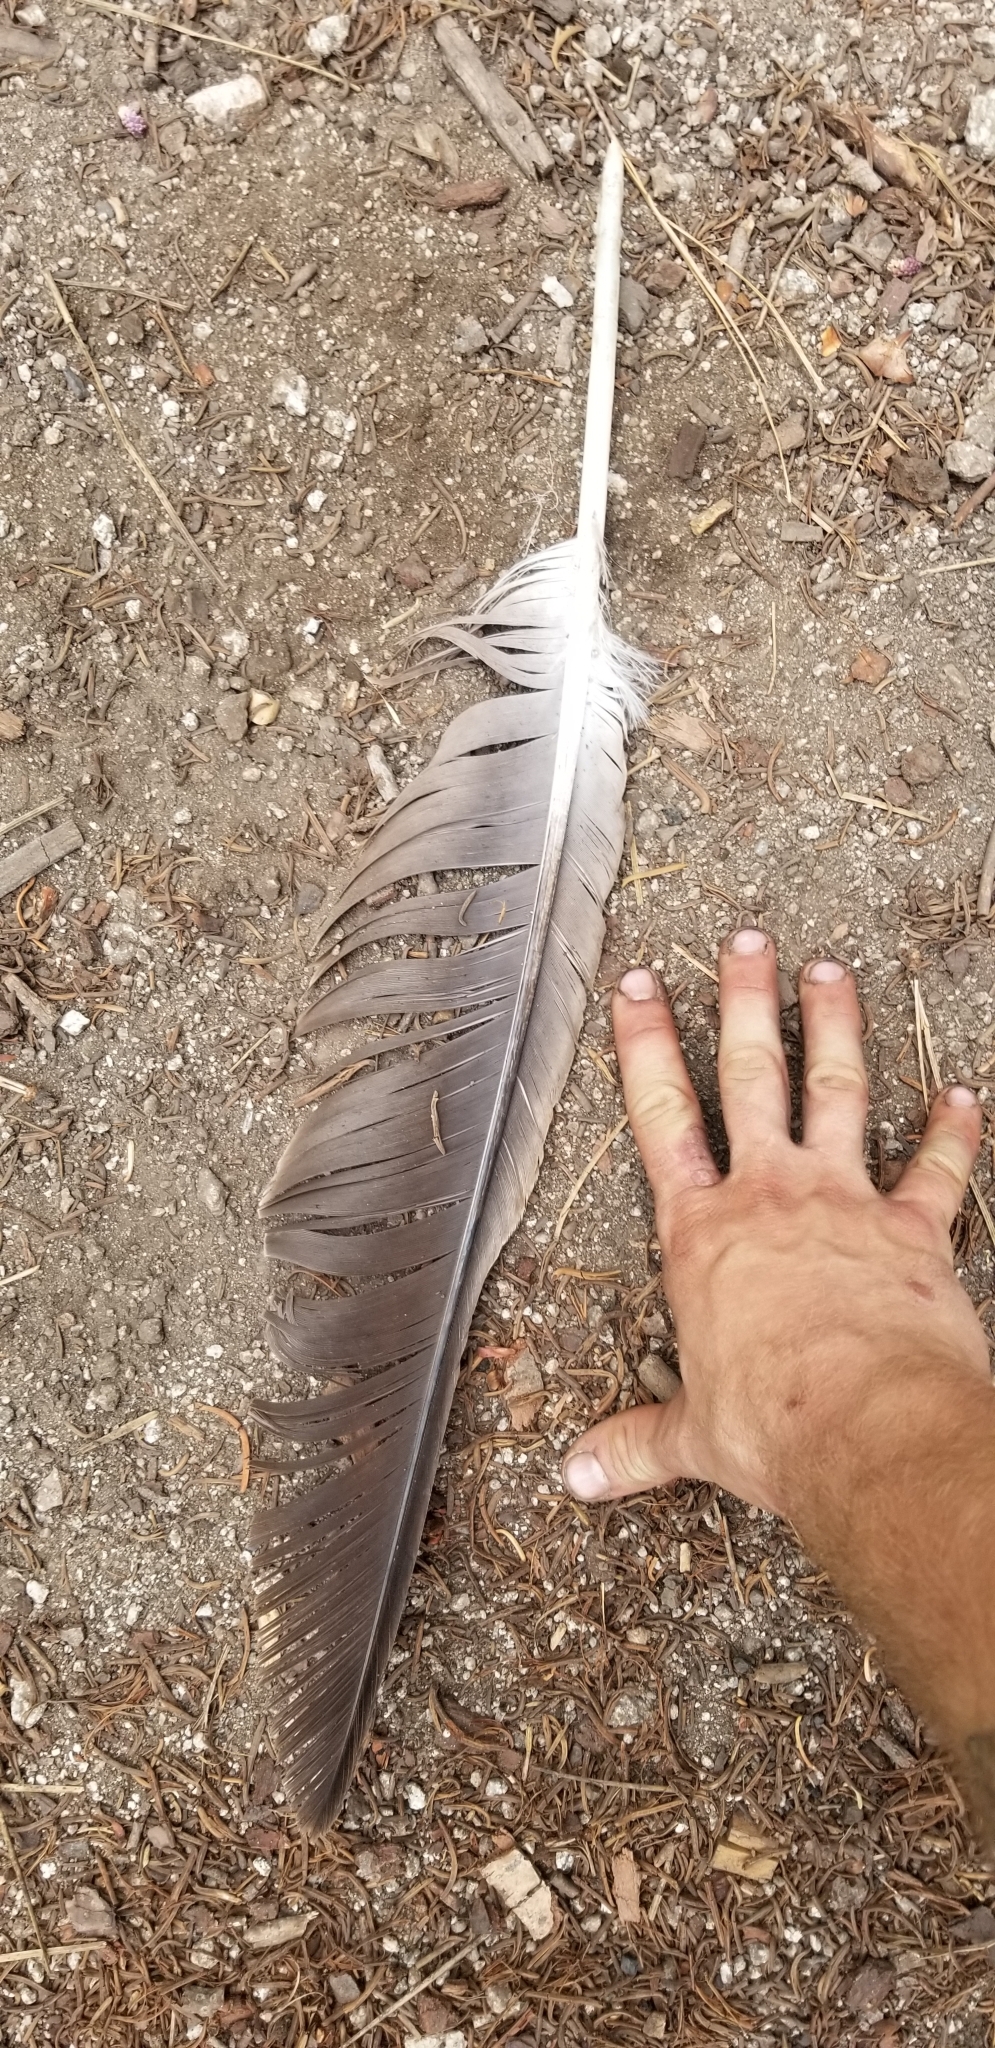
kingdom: Animalia
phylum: Chordata
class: Aves
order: Accipitriformes
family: Accipitridae
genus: Haliaeetus
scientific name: Haliaeetus leucocephalus
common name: Bald eagle
